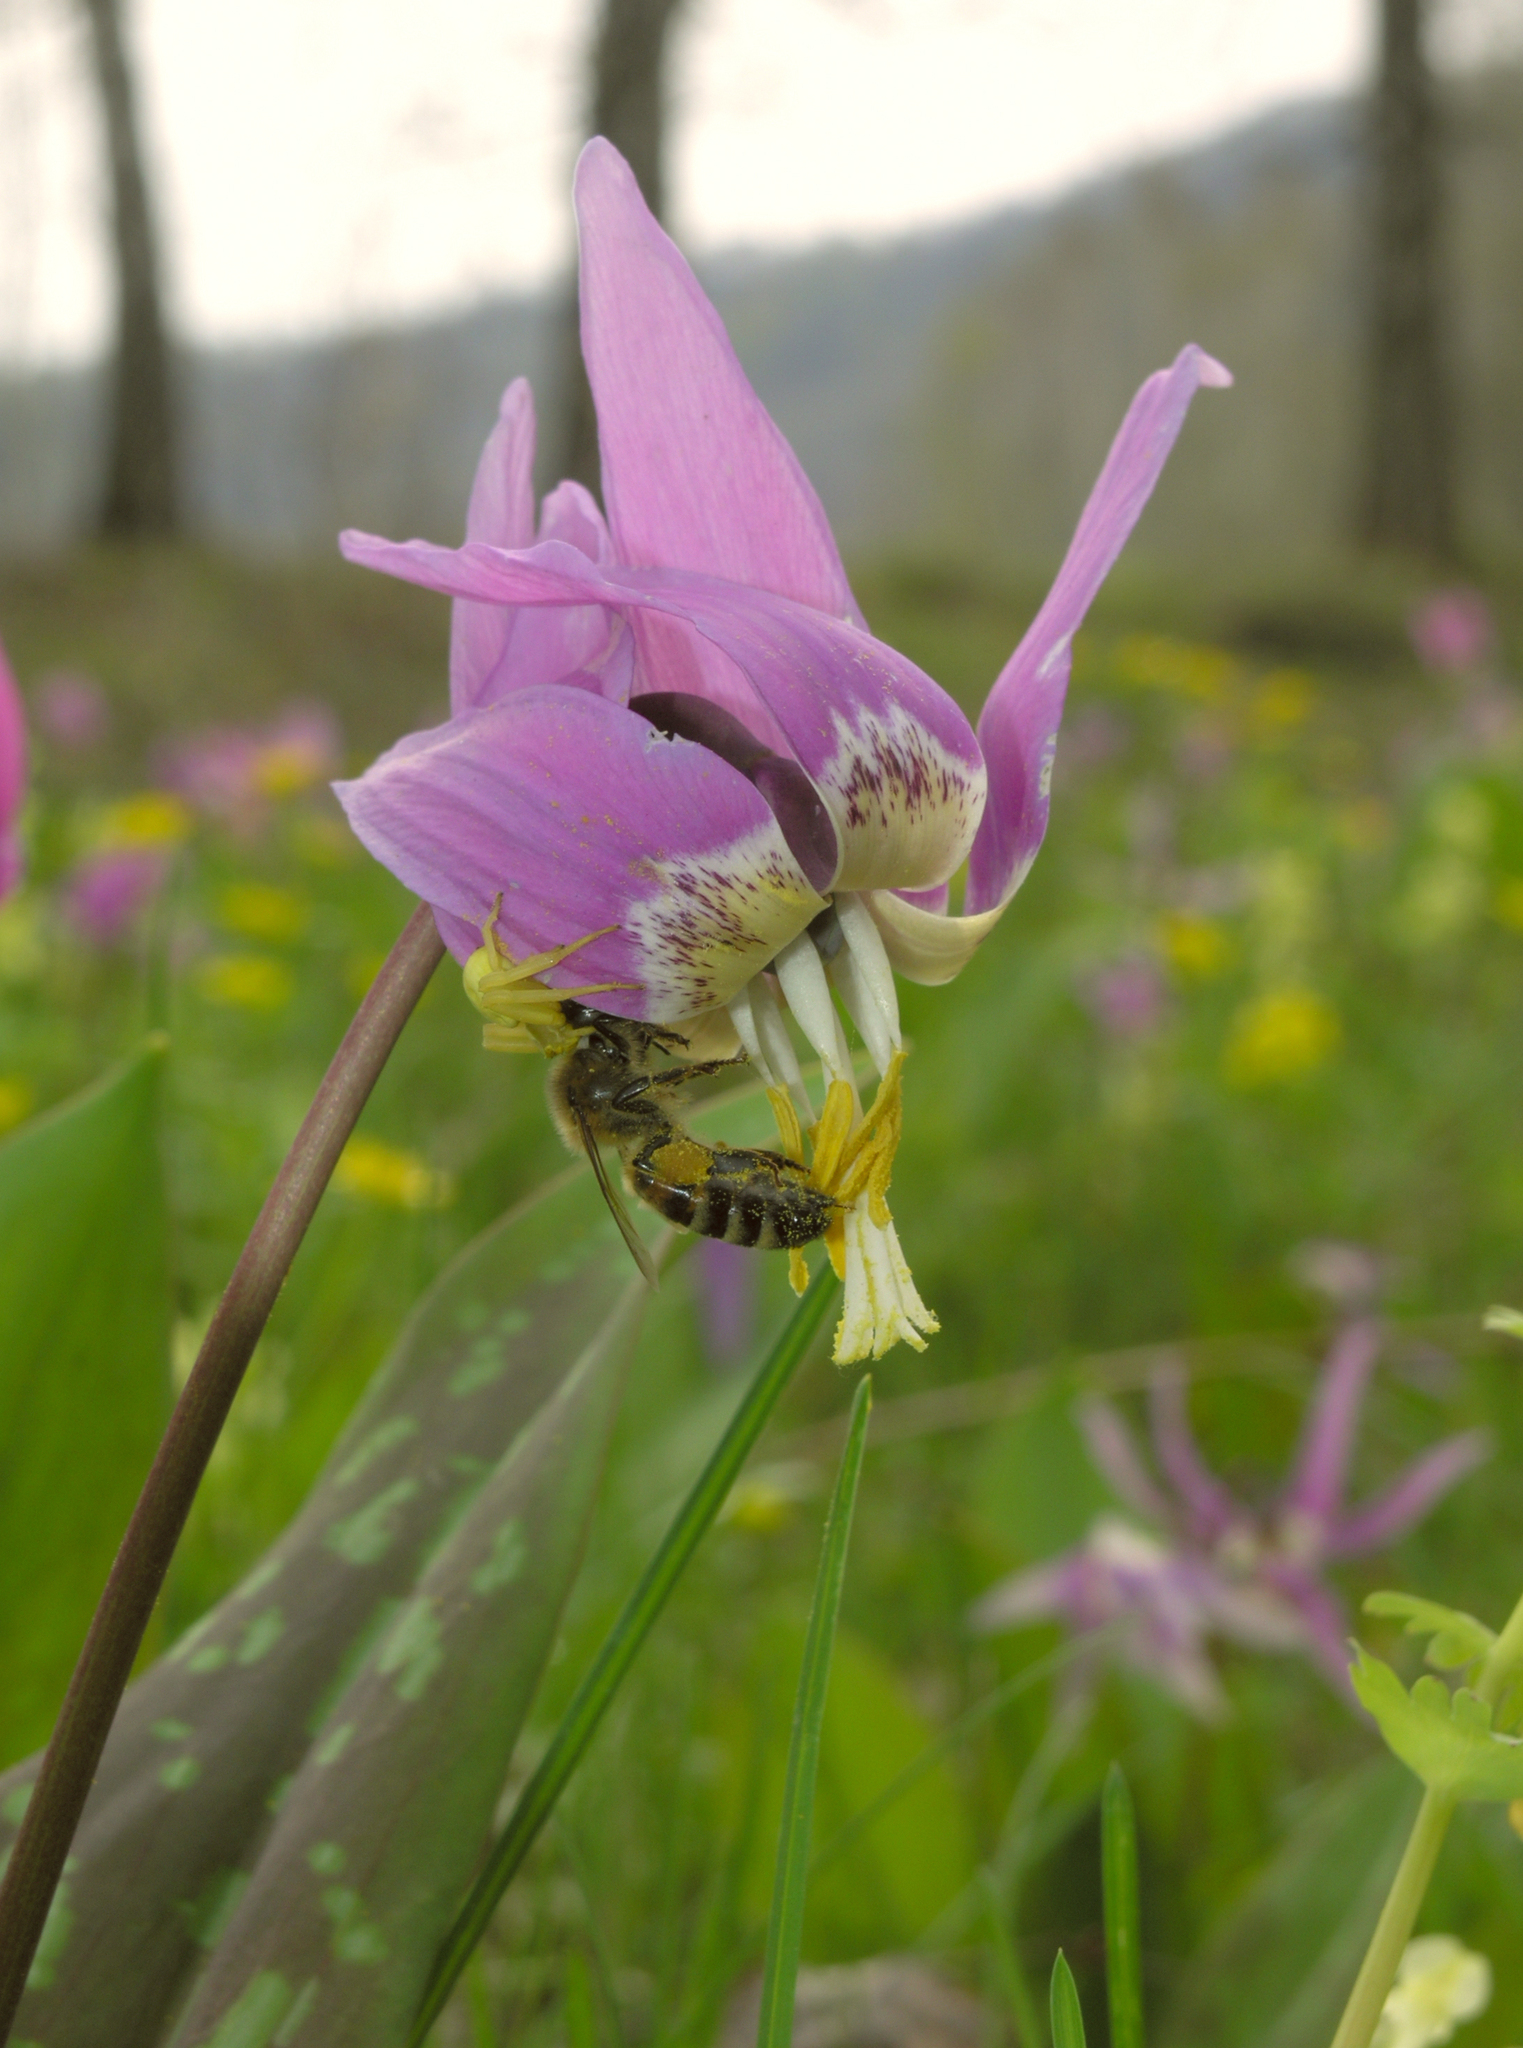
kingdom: Animalia
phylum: Arthropoda
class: Arachnida
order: Araneae
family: Thomisidae
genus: Misumena
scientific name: Misumena vatia
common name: Goldenrod crab spider
